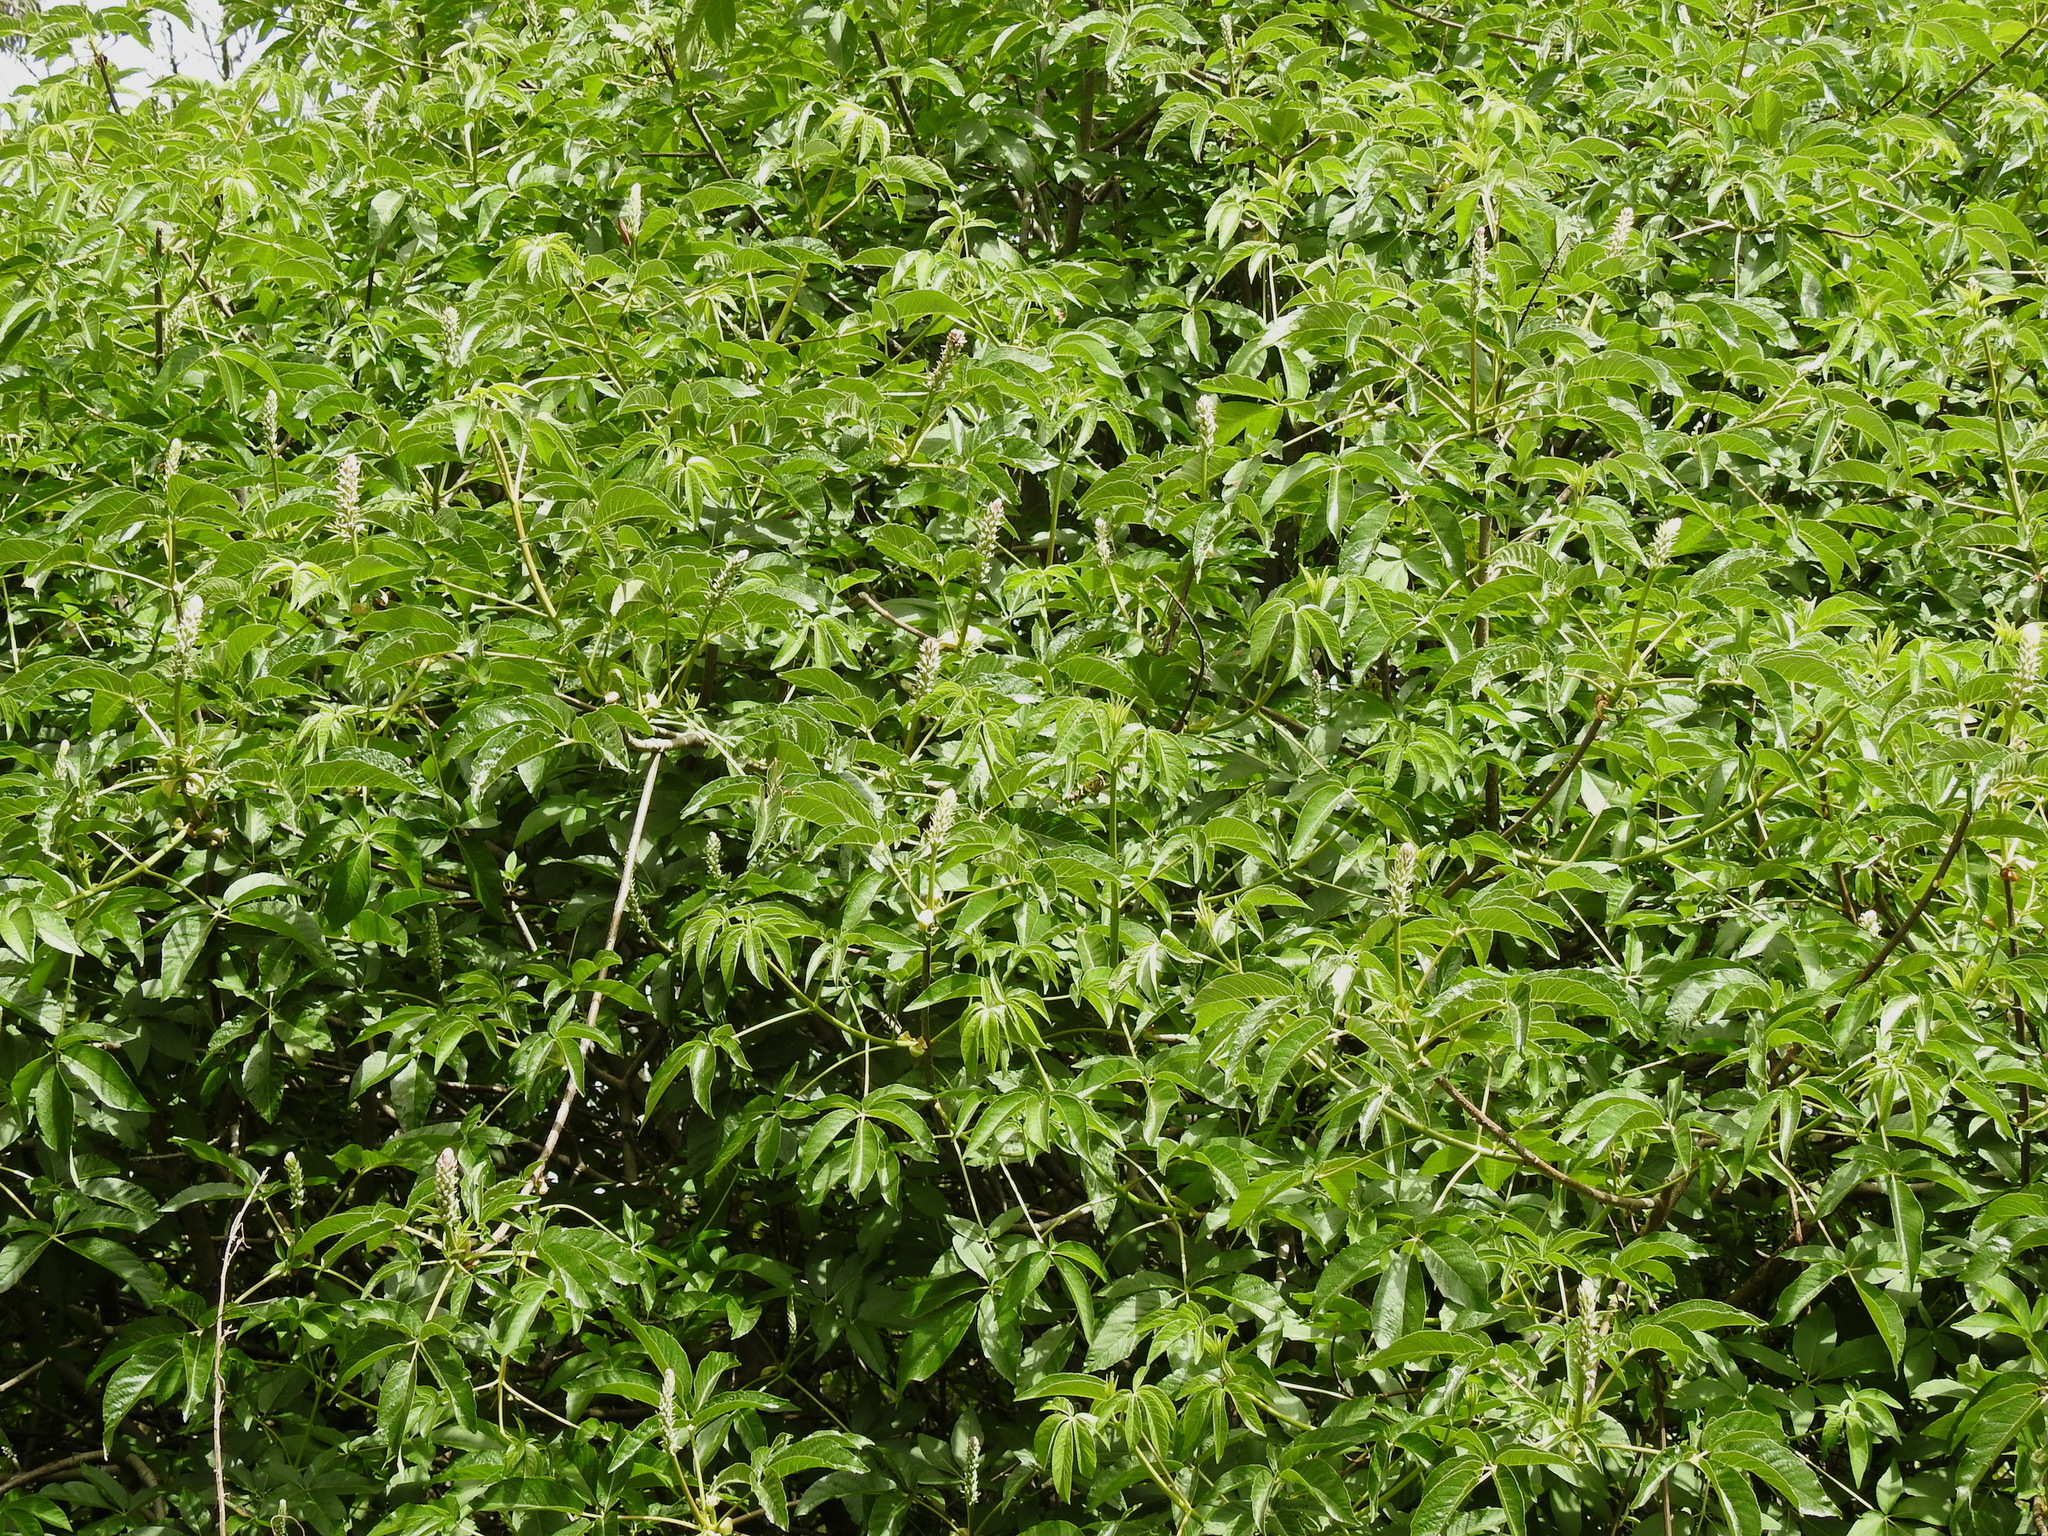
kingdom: Plantae
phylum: Tracheophyta
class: Magnoliopsida
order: Sapindales
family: Sapindaceae
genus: Aesculus
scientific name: Aesculus californica
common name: California buckeye
